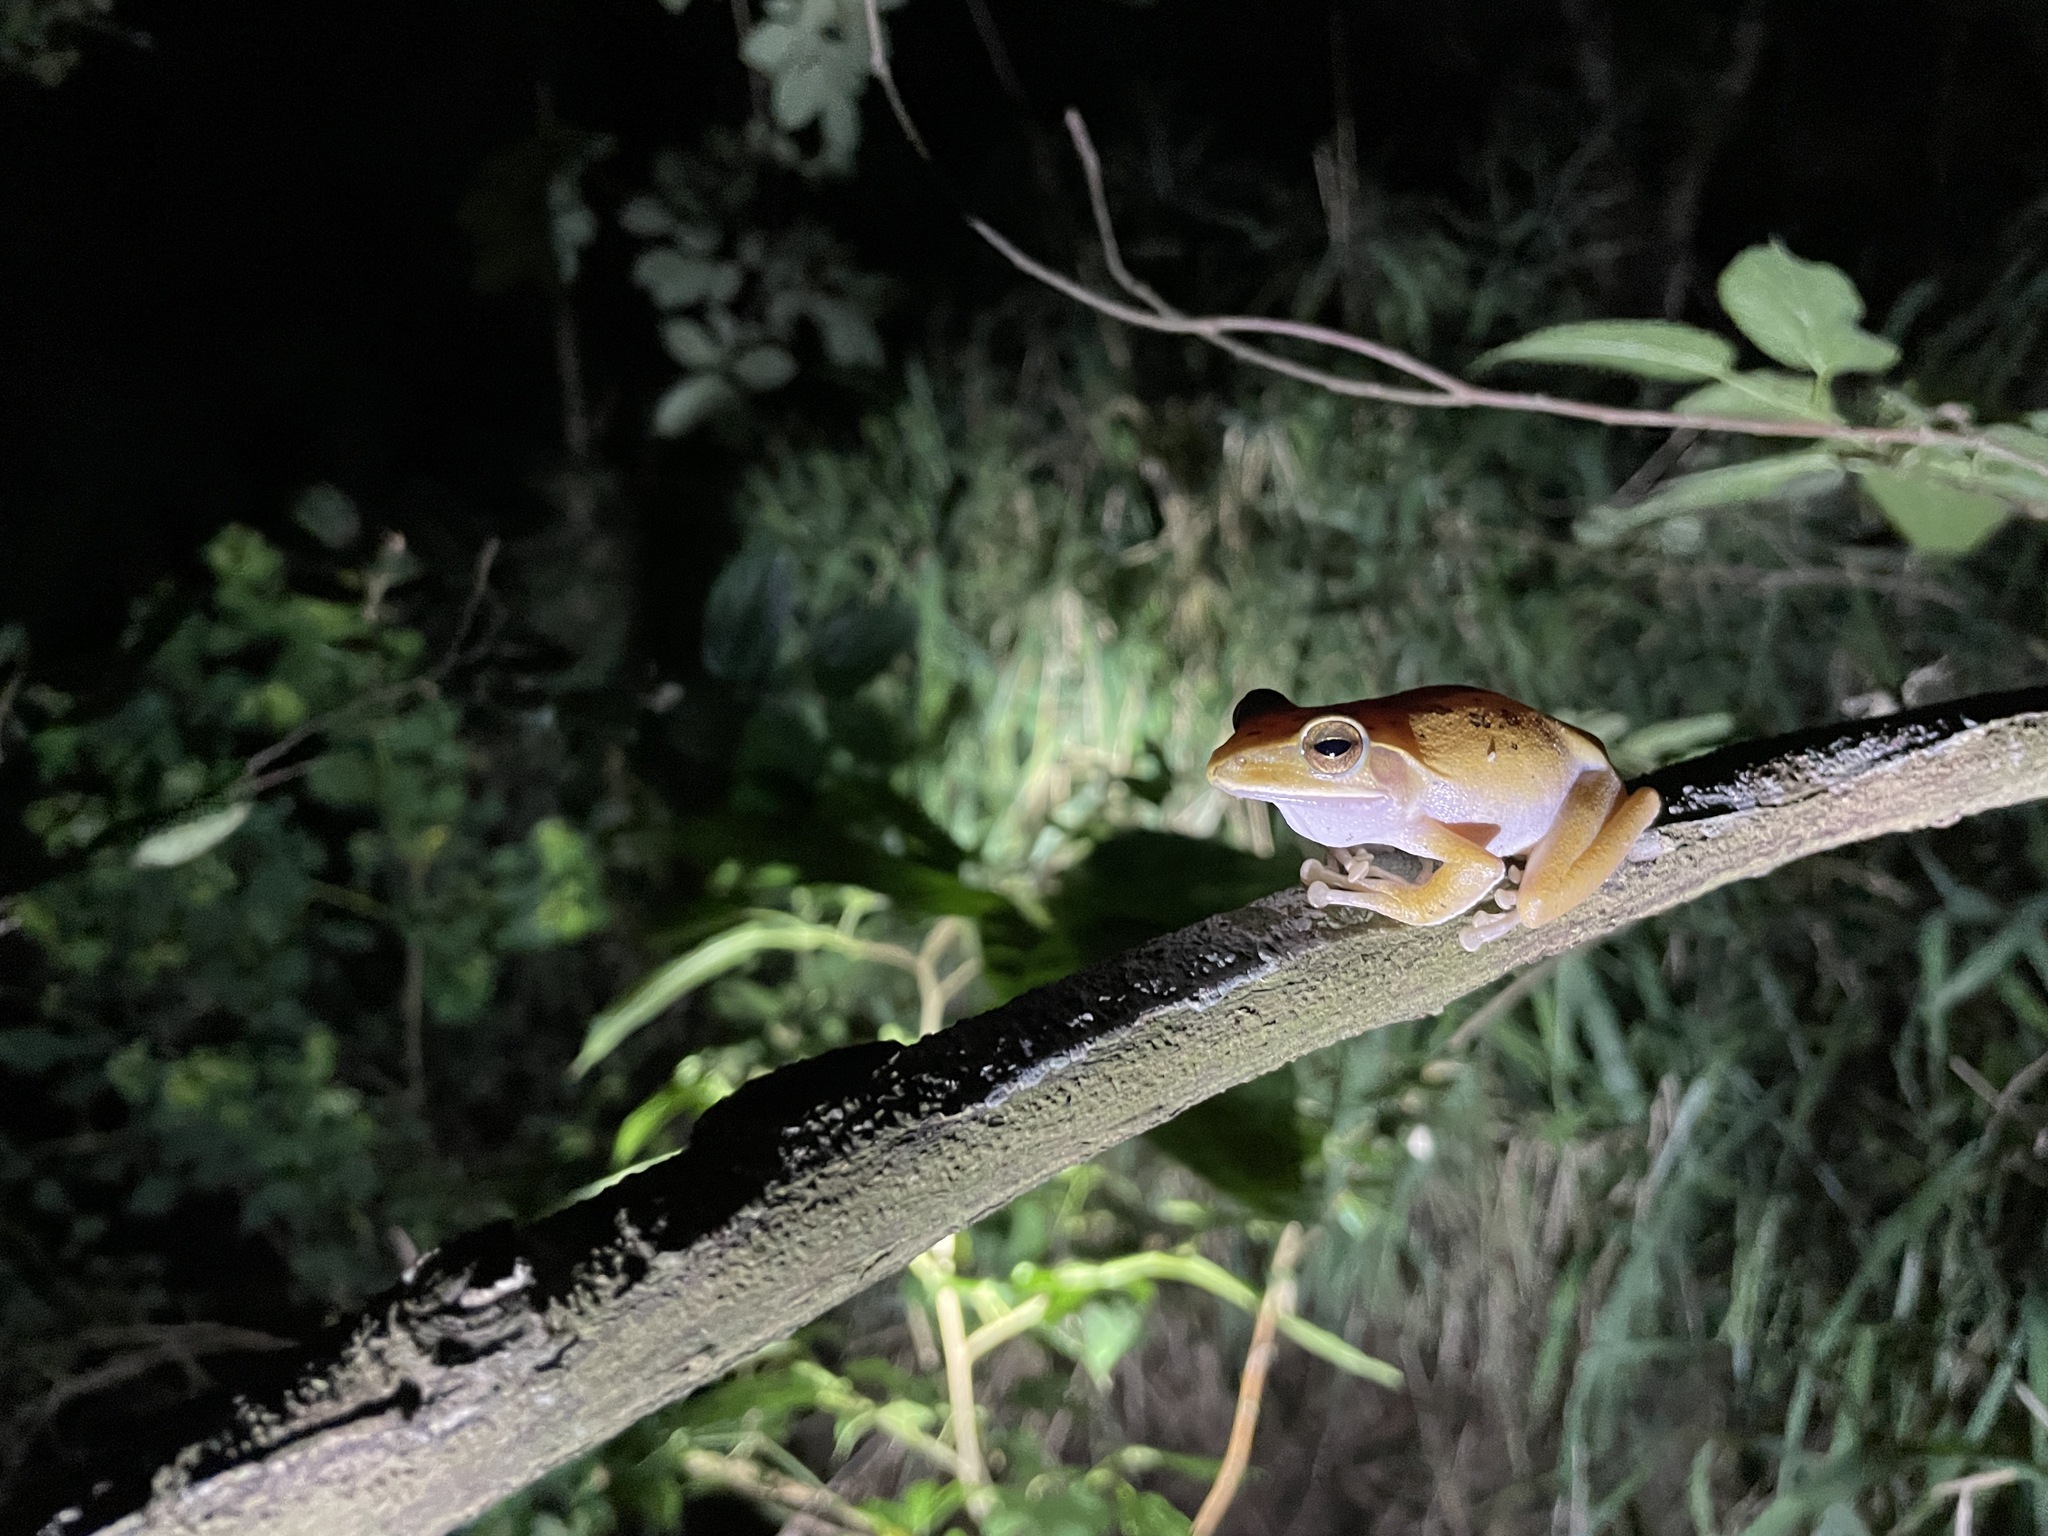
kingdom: Animalia
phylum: Chordata
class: Amphibia
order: Anura
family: Rhacophoridae
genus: Polypedates
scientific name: Polypedates megacephalus
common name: Hong kong whipping frog
